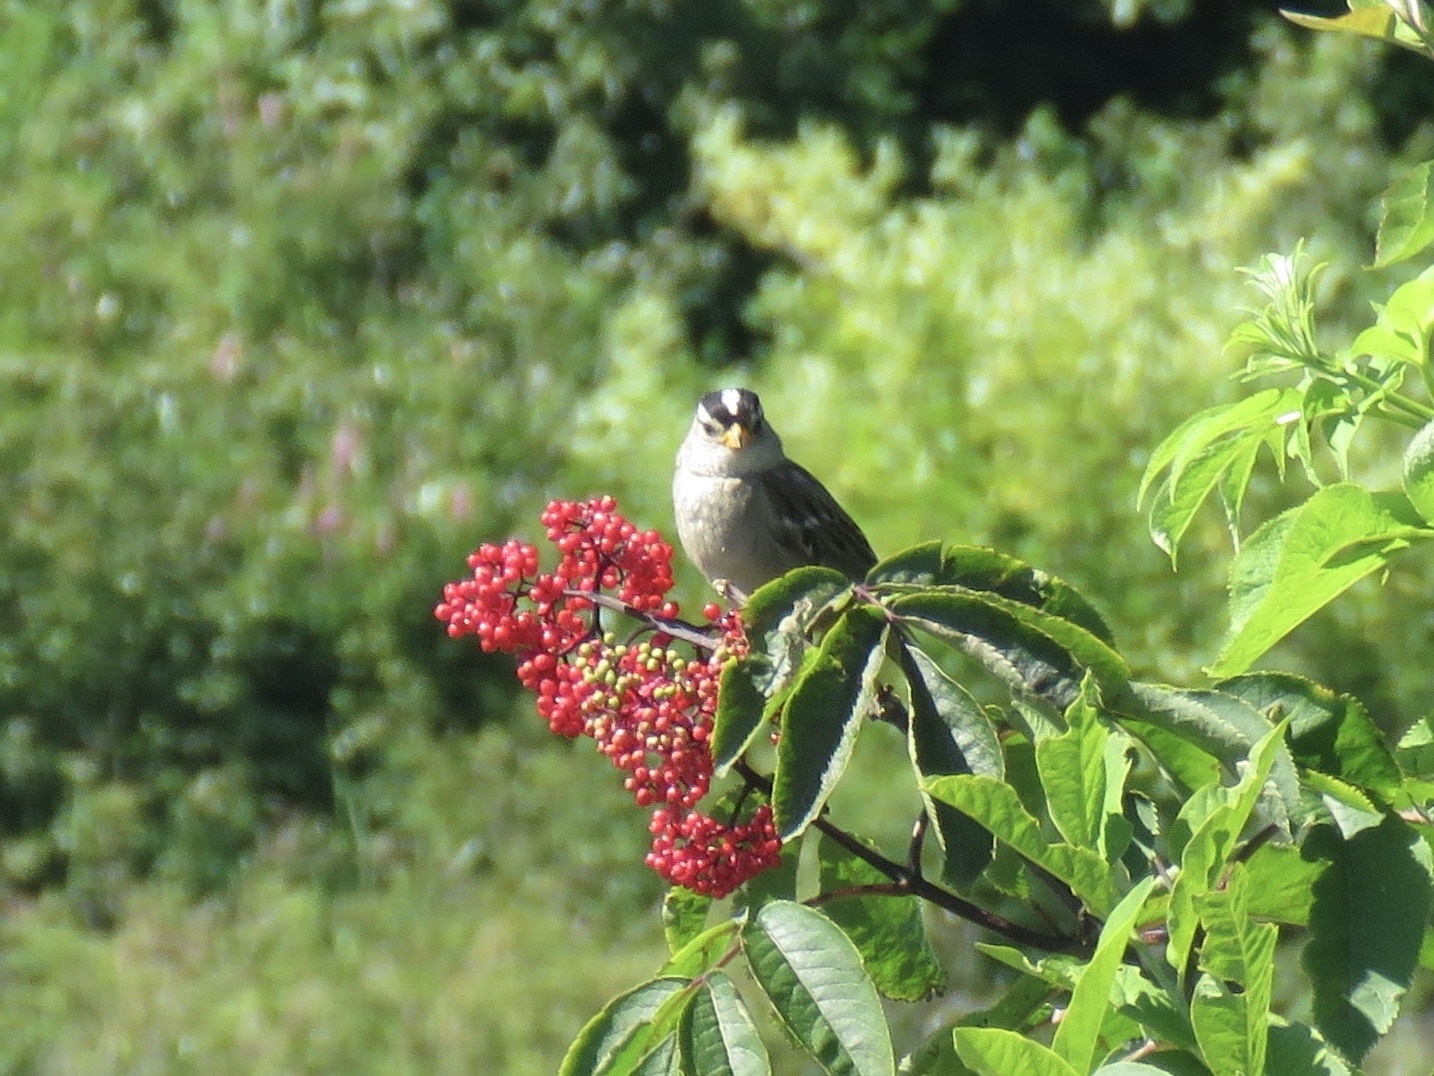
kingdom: Animalia
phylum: Chordata
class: Aves
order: Passeriformes
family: Passerellidae
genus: Zonotrichia
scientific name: Zonotrichia leucophrys
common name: White-crowned sparrow
